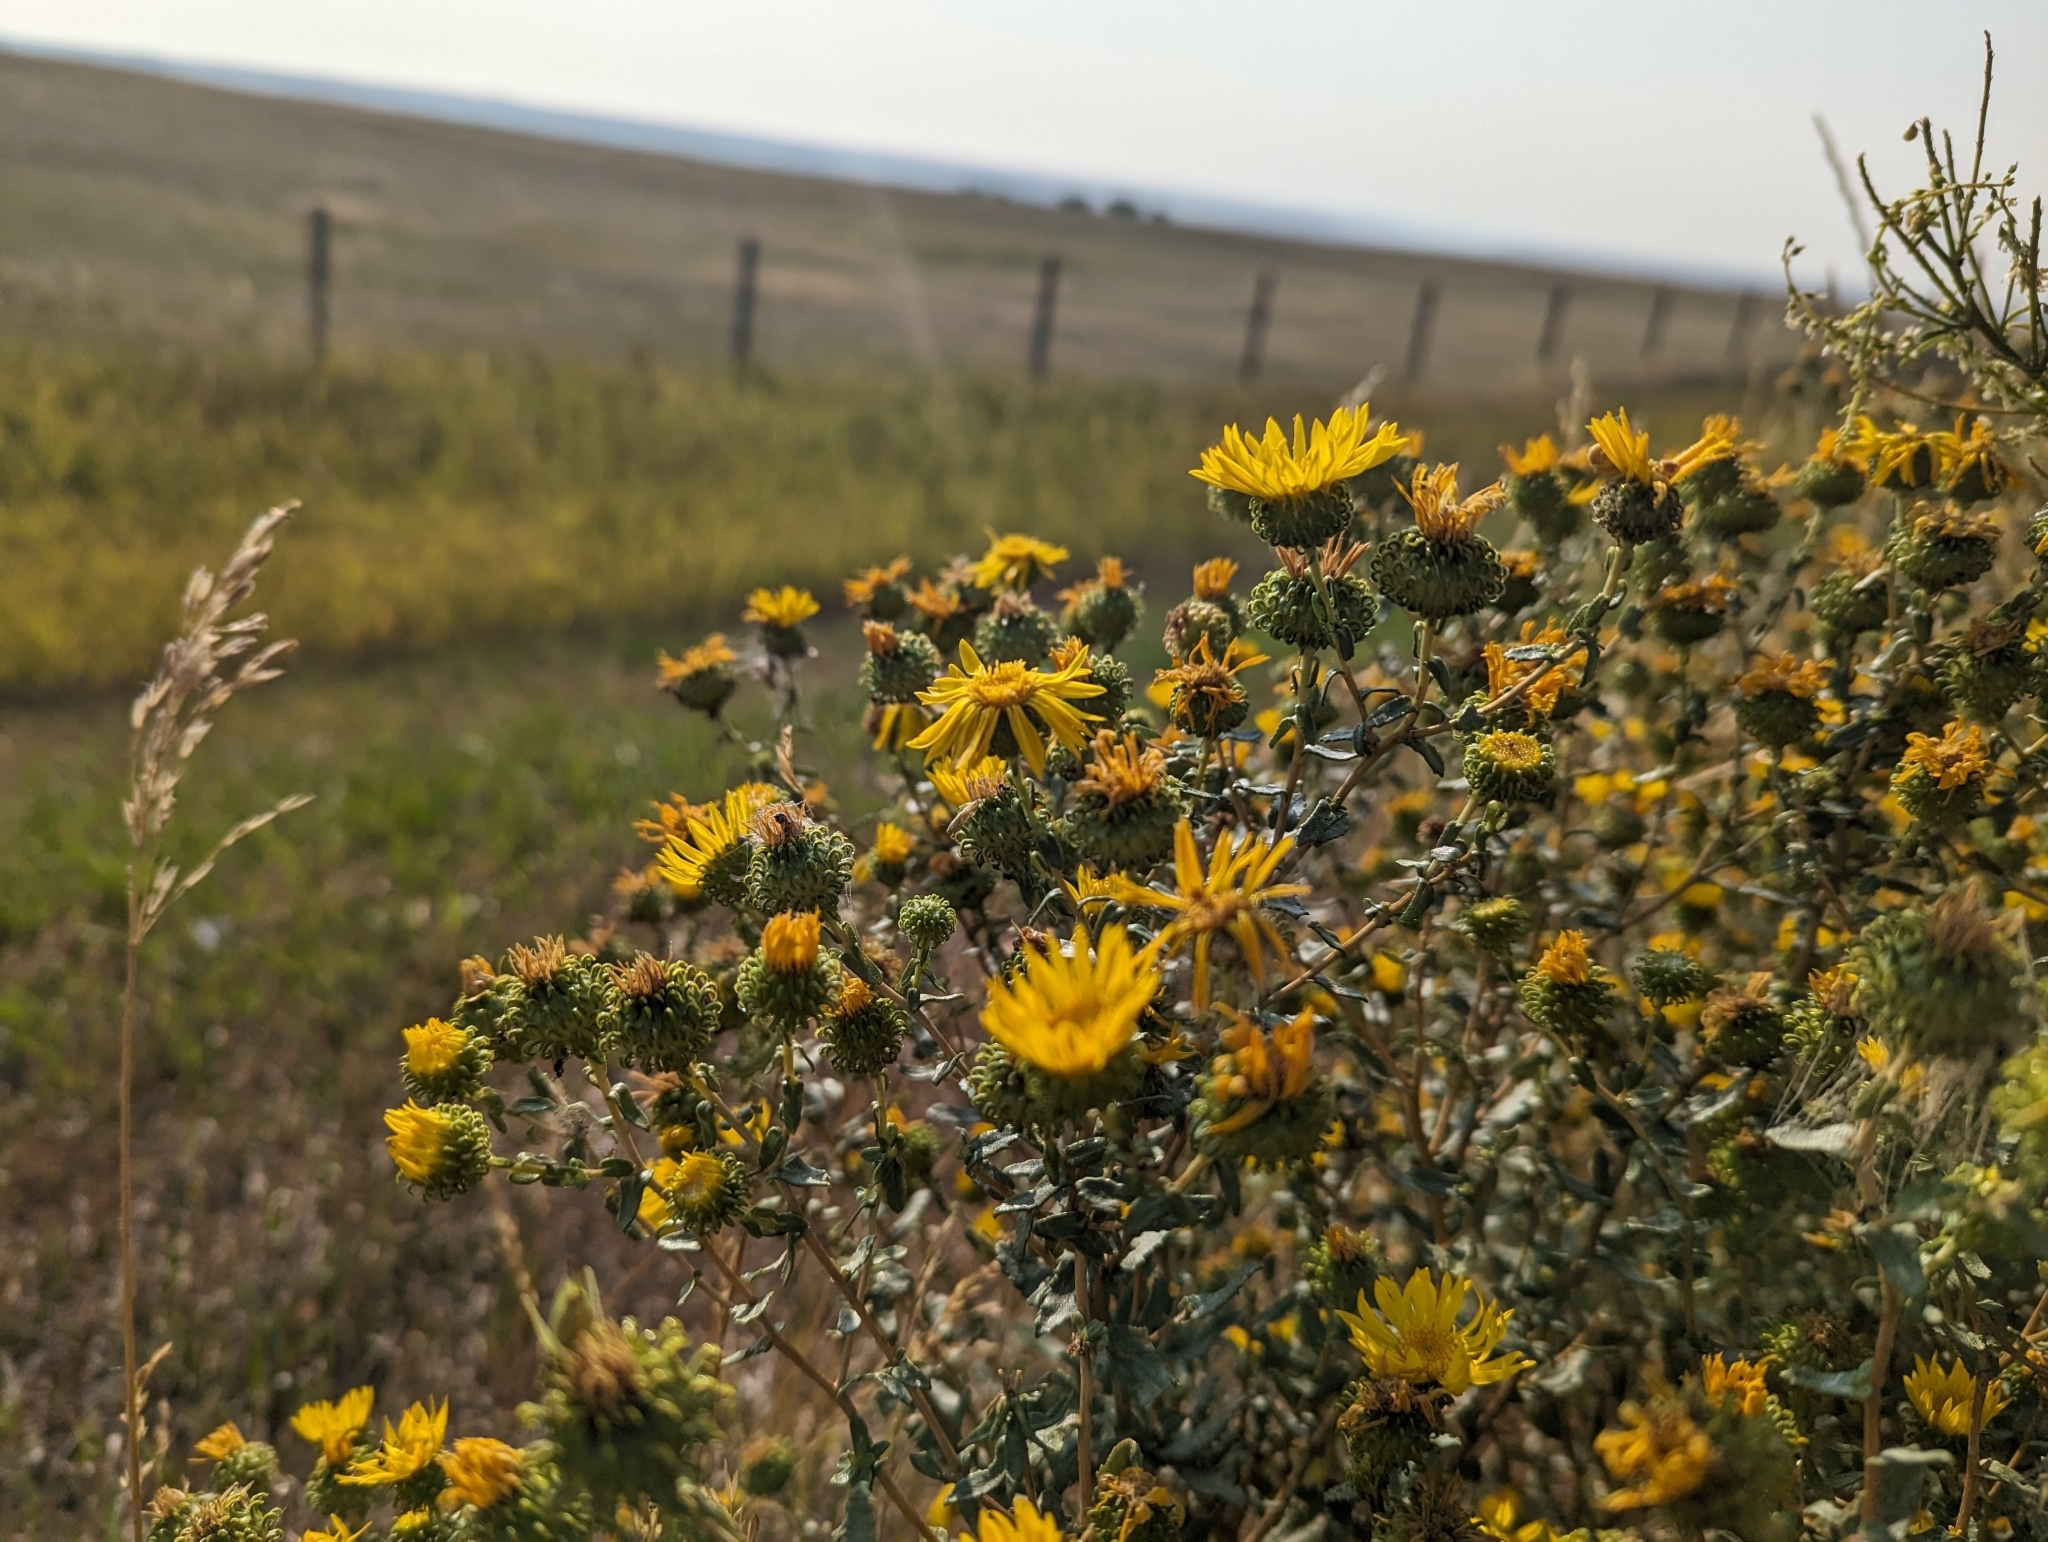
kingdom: Plantae
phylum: Tracheophyta
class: Magnoliopsida
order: Asterales
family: Asteraceae
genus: Grindelia
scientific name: Grindelia squarrosa
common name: Curly-cup gumweed
